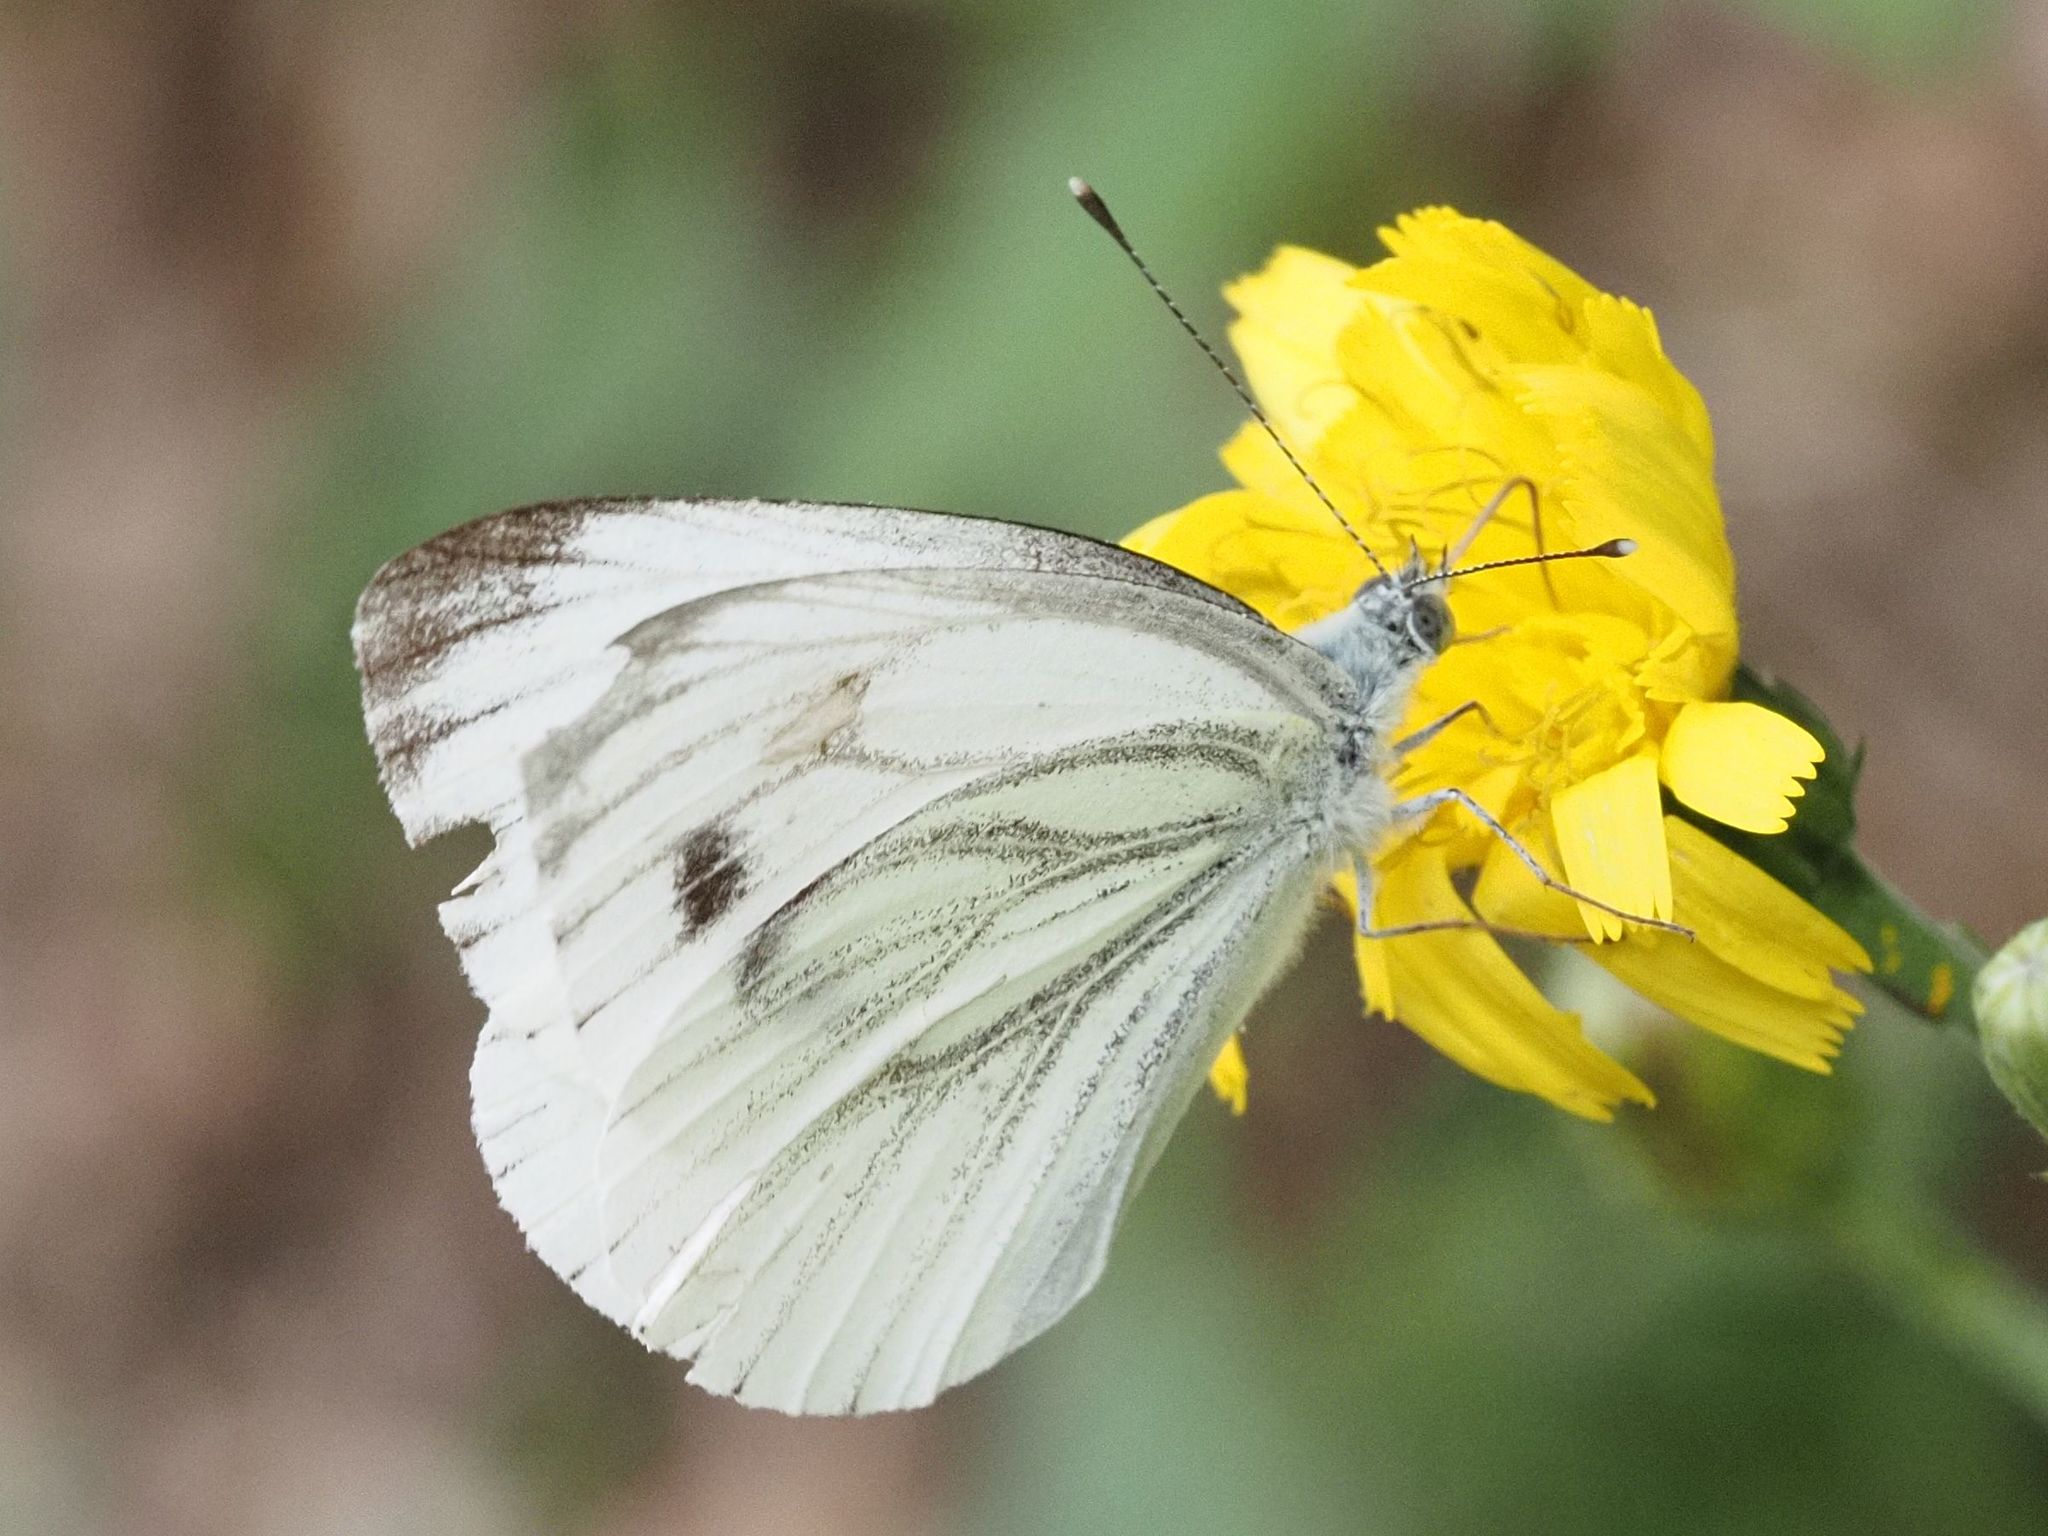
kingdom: Animalia
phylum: Arthropoda
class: Insecta
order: Lepidoptera
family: Pieridae
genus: Pieris
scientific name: Pieris napi
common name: Green-veined white
